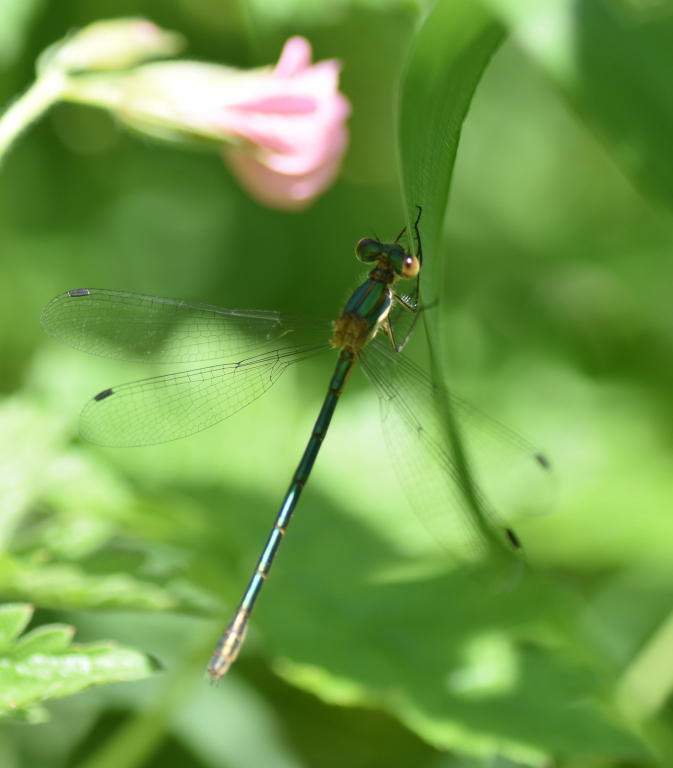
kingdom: Animalia
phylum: Arthropoda
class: Insecta
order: Odonata
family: Lestidae
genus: Lestes
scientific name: Lestes dryas
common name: Scarce emerald damselfly
